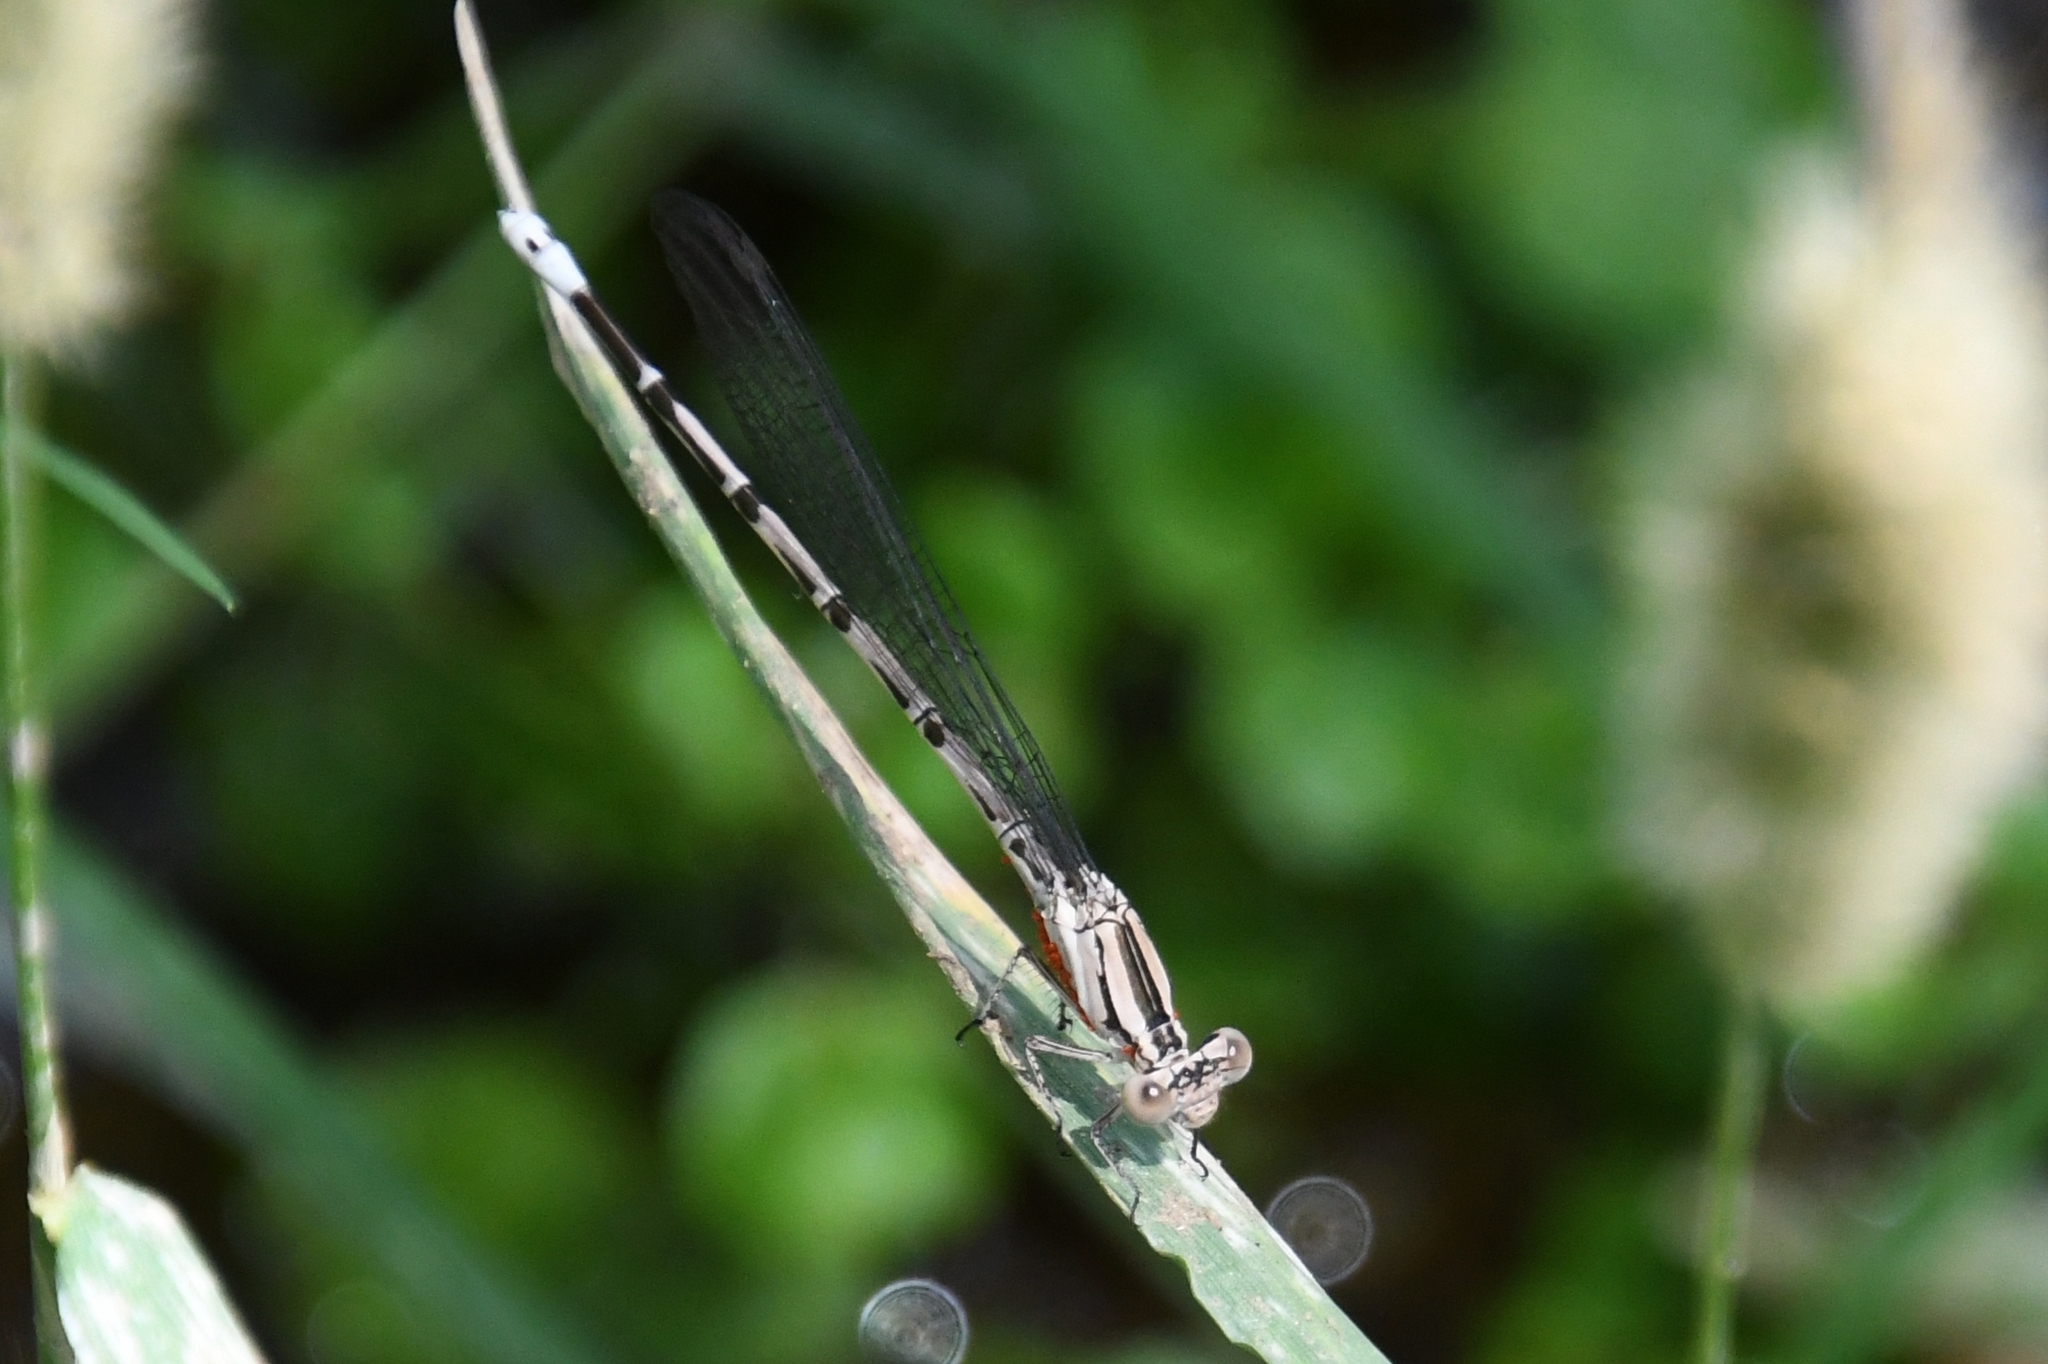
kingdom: Animalia
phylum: Arthropoda
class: Insecta
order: Odonata
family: Coenagrionidae
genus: Argia
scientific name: Argia funebris
